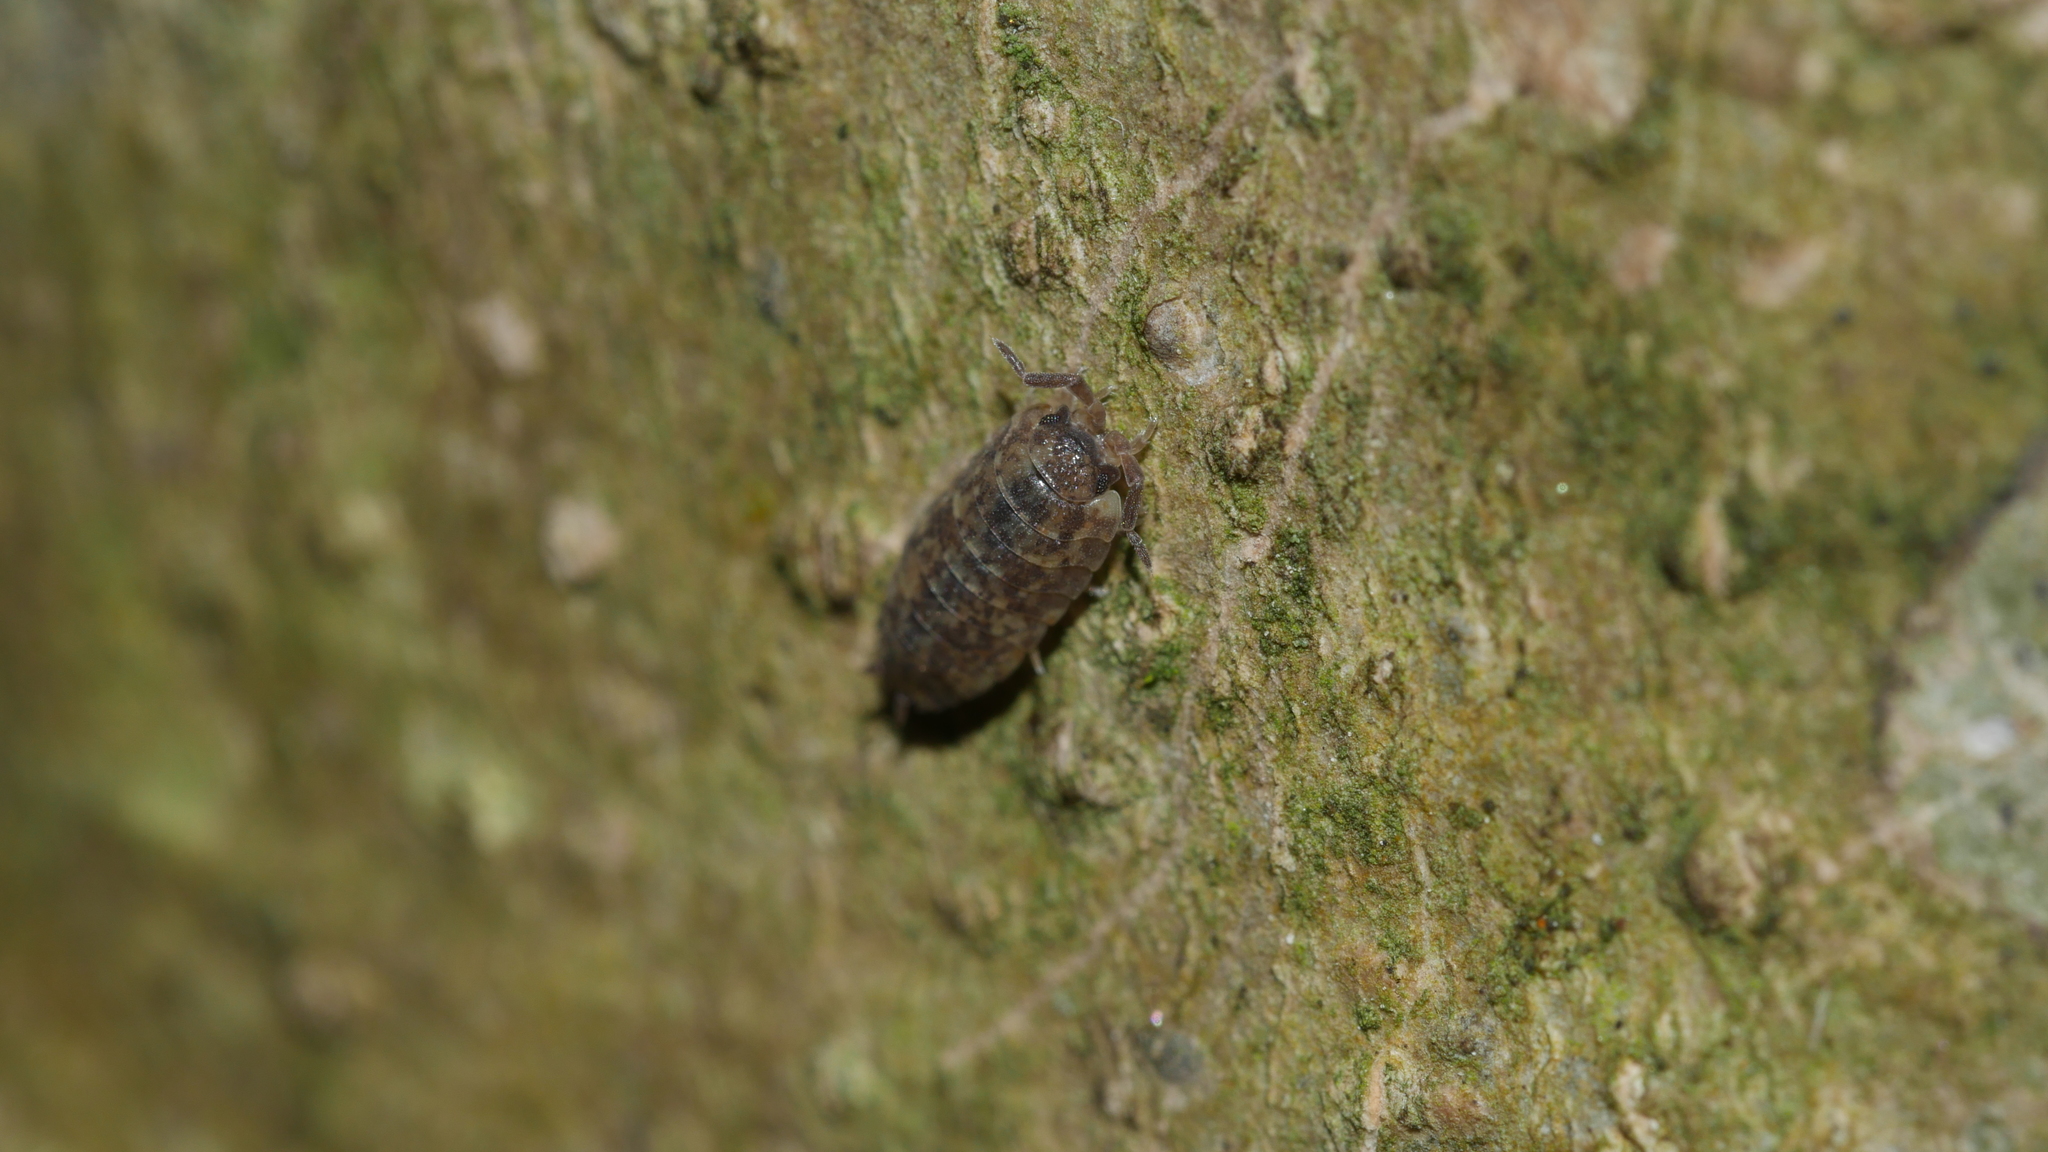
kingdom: Animalia
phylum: Arthropoda
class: Malacostraca
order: Isopoda
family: Porcellionidae
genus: Porcellio
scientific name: Porcellio scaber
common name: Common rough woodlouse
